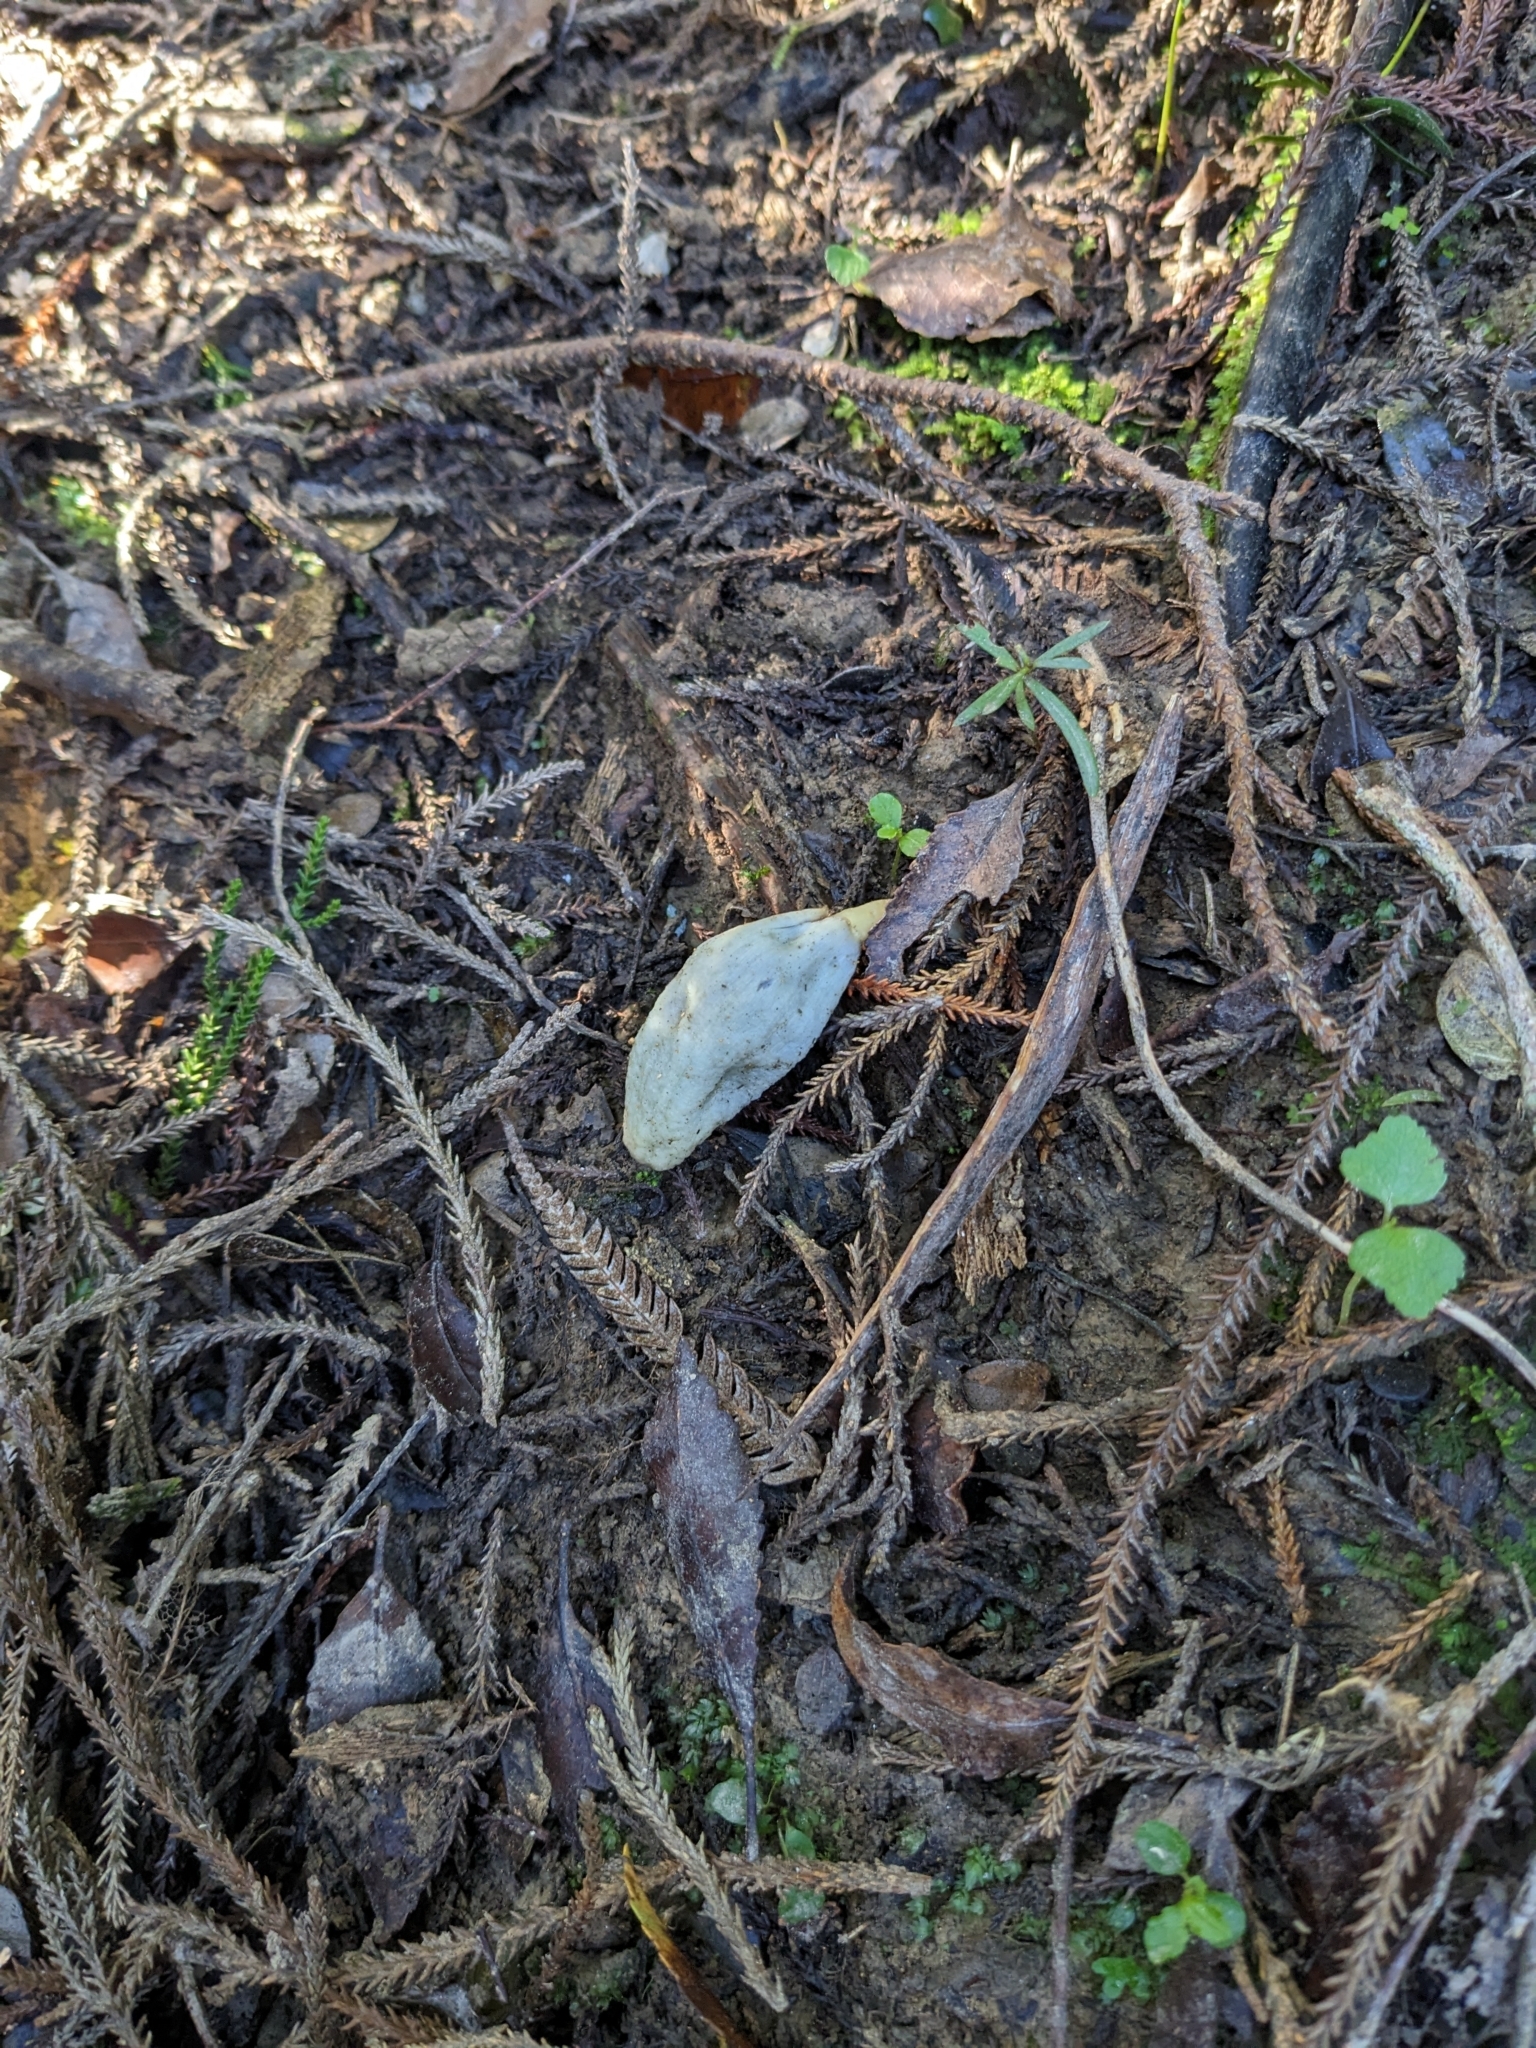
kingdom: Fungi
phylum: Basidiomycota
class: Agaricomycetes
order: Agaricales
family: Agaricaceae
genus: Clavogaster
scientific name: Clavogaster virescens
